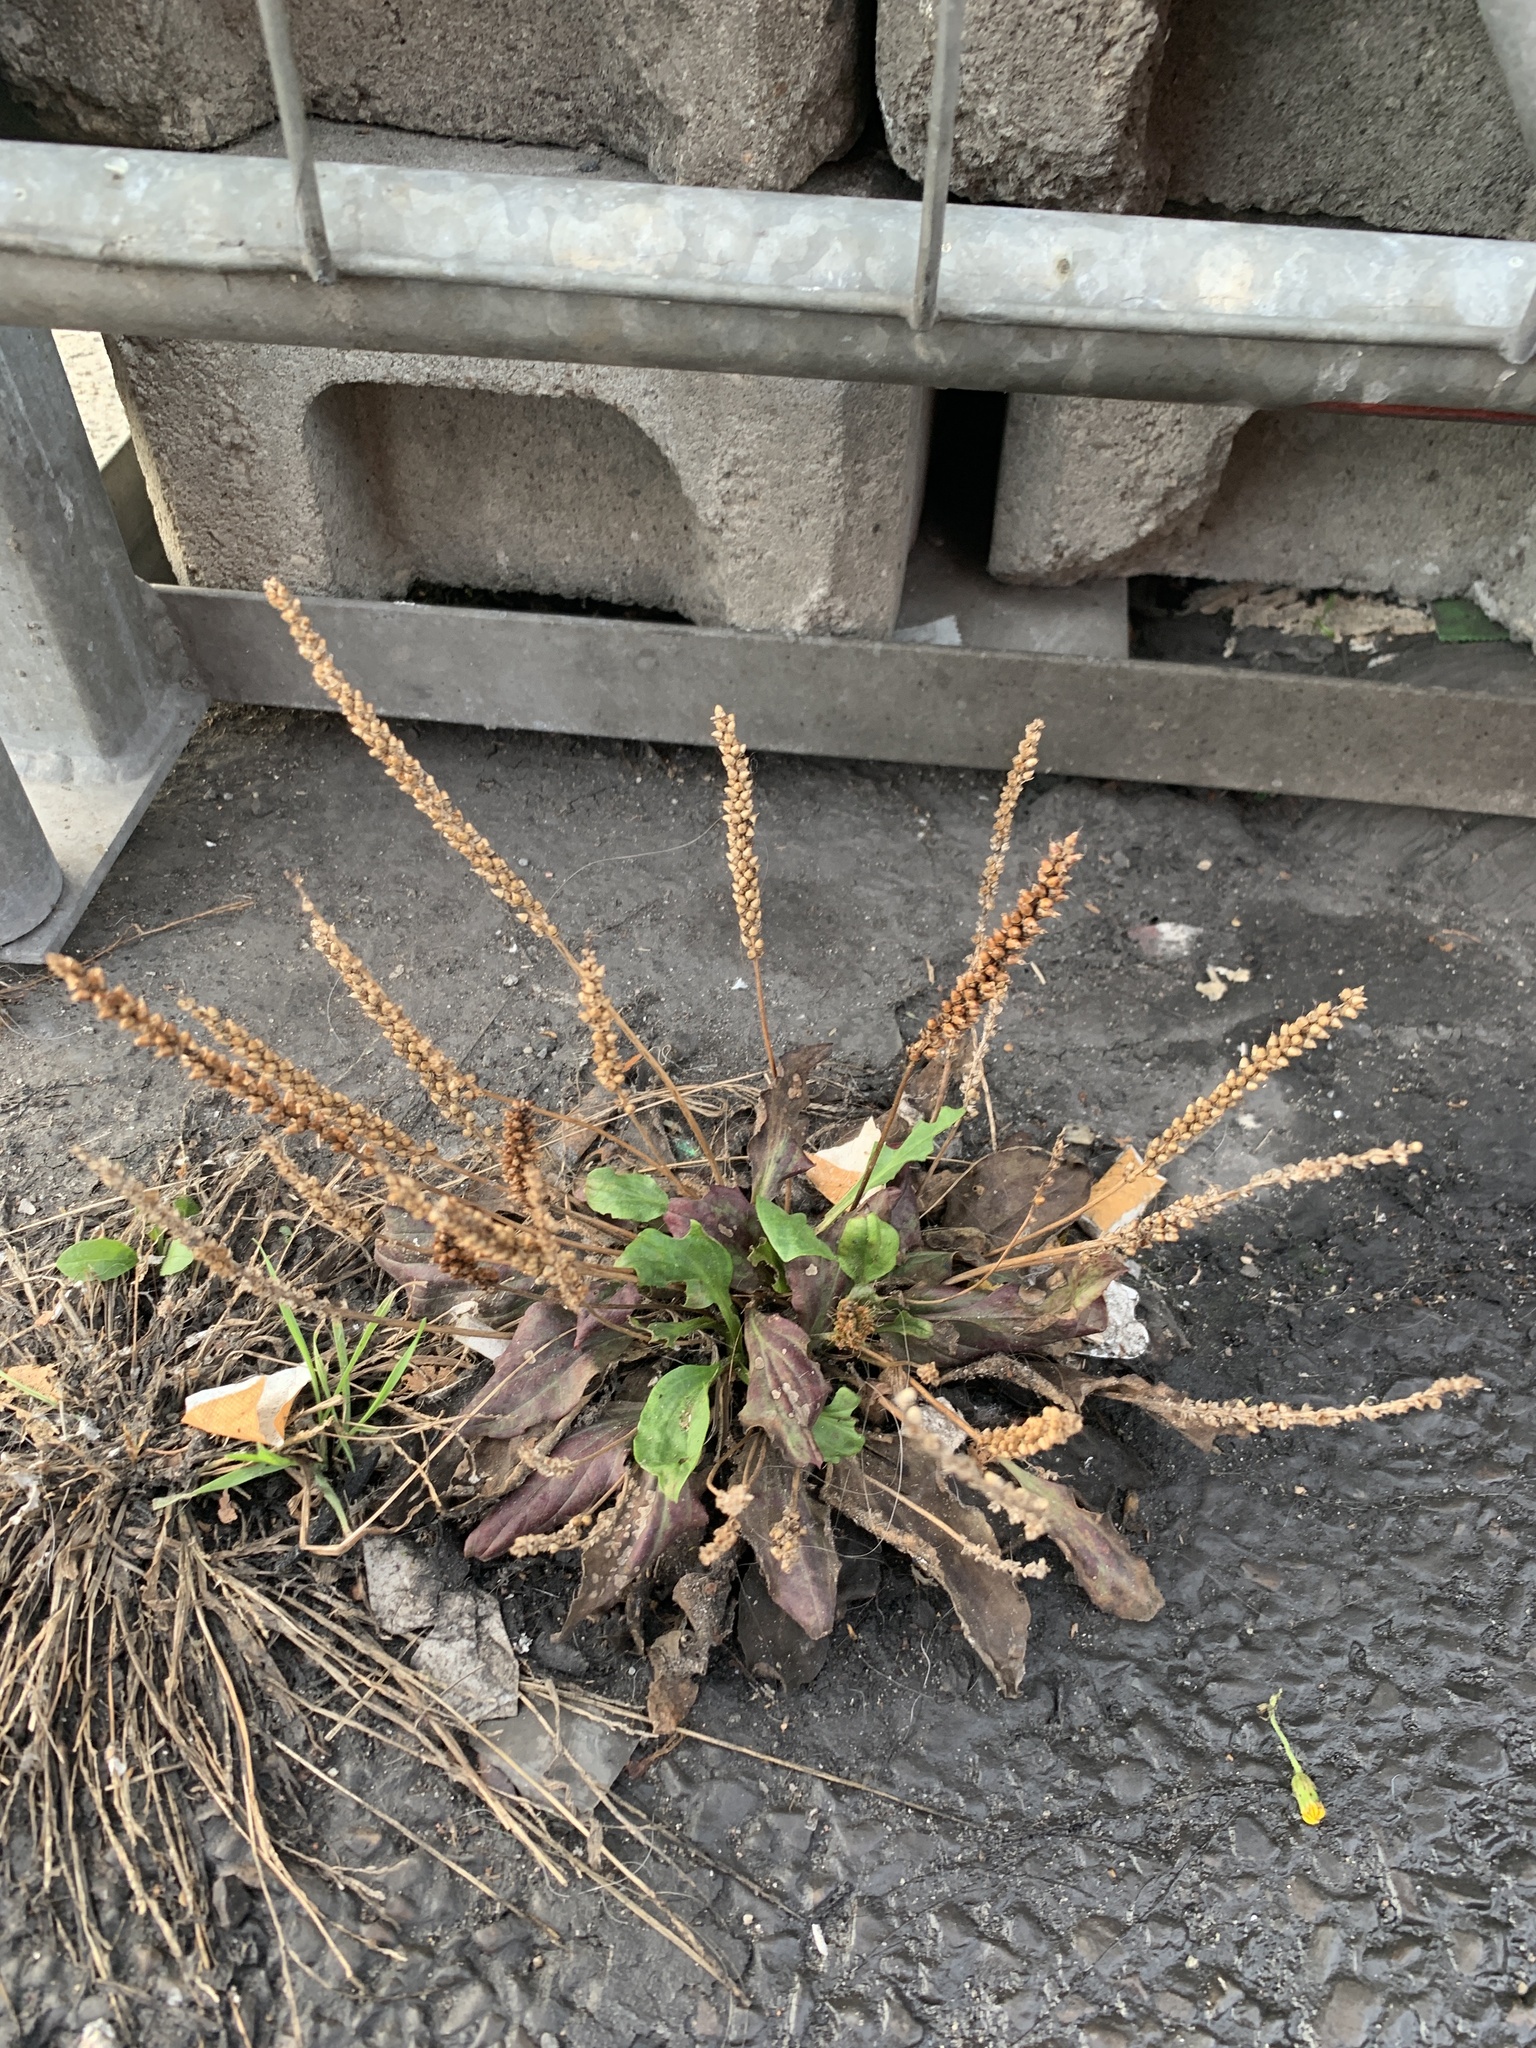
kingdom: Plantae
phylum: Tracheophyta
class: Magnoliopsida
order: Lamiales
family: Plantaginaceae
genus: Plantago
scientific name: Plantago major
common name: Common plantain
